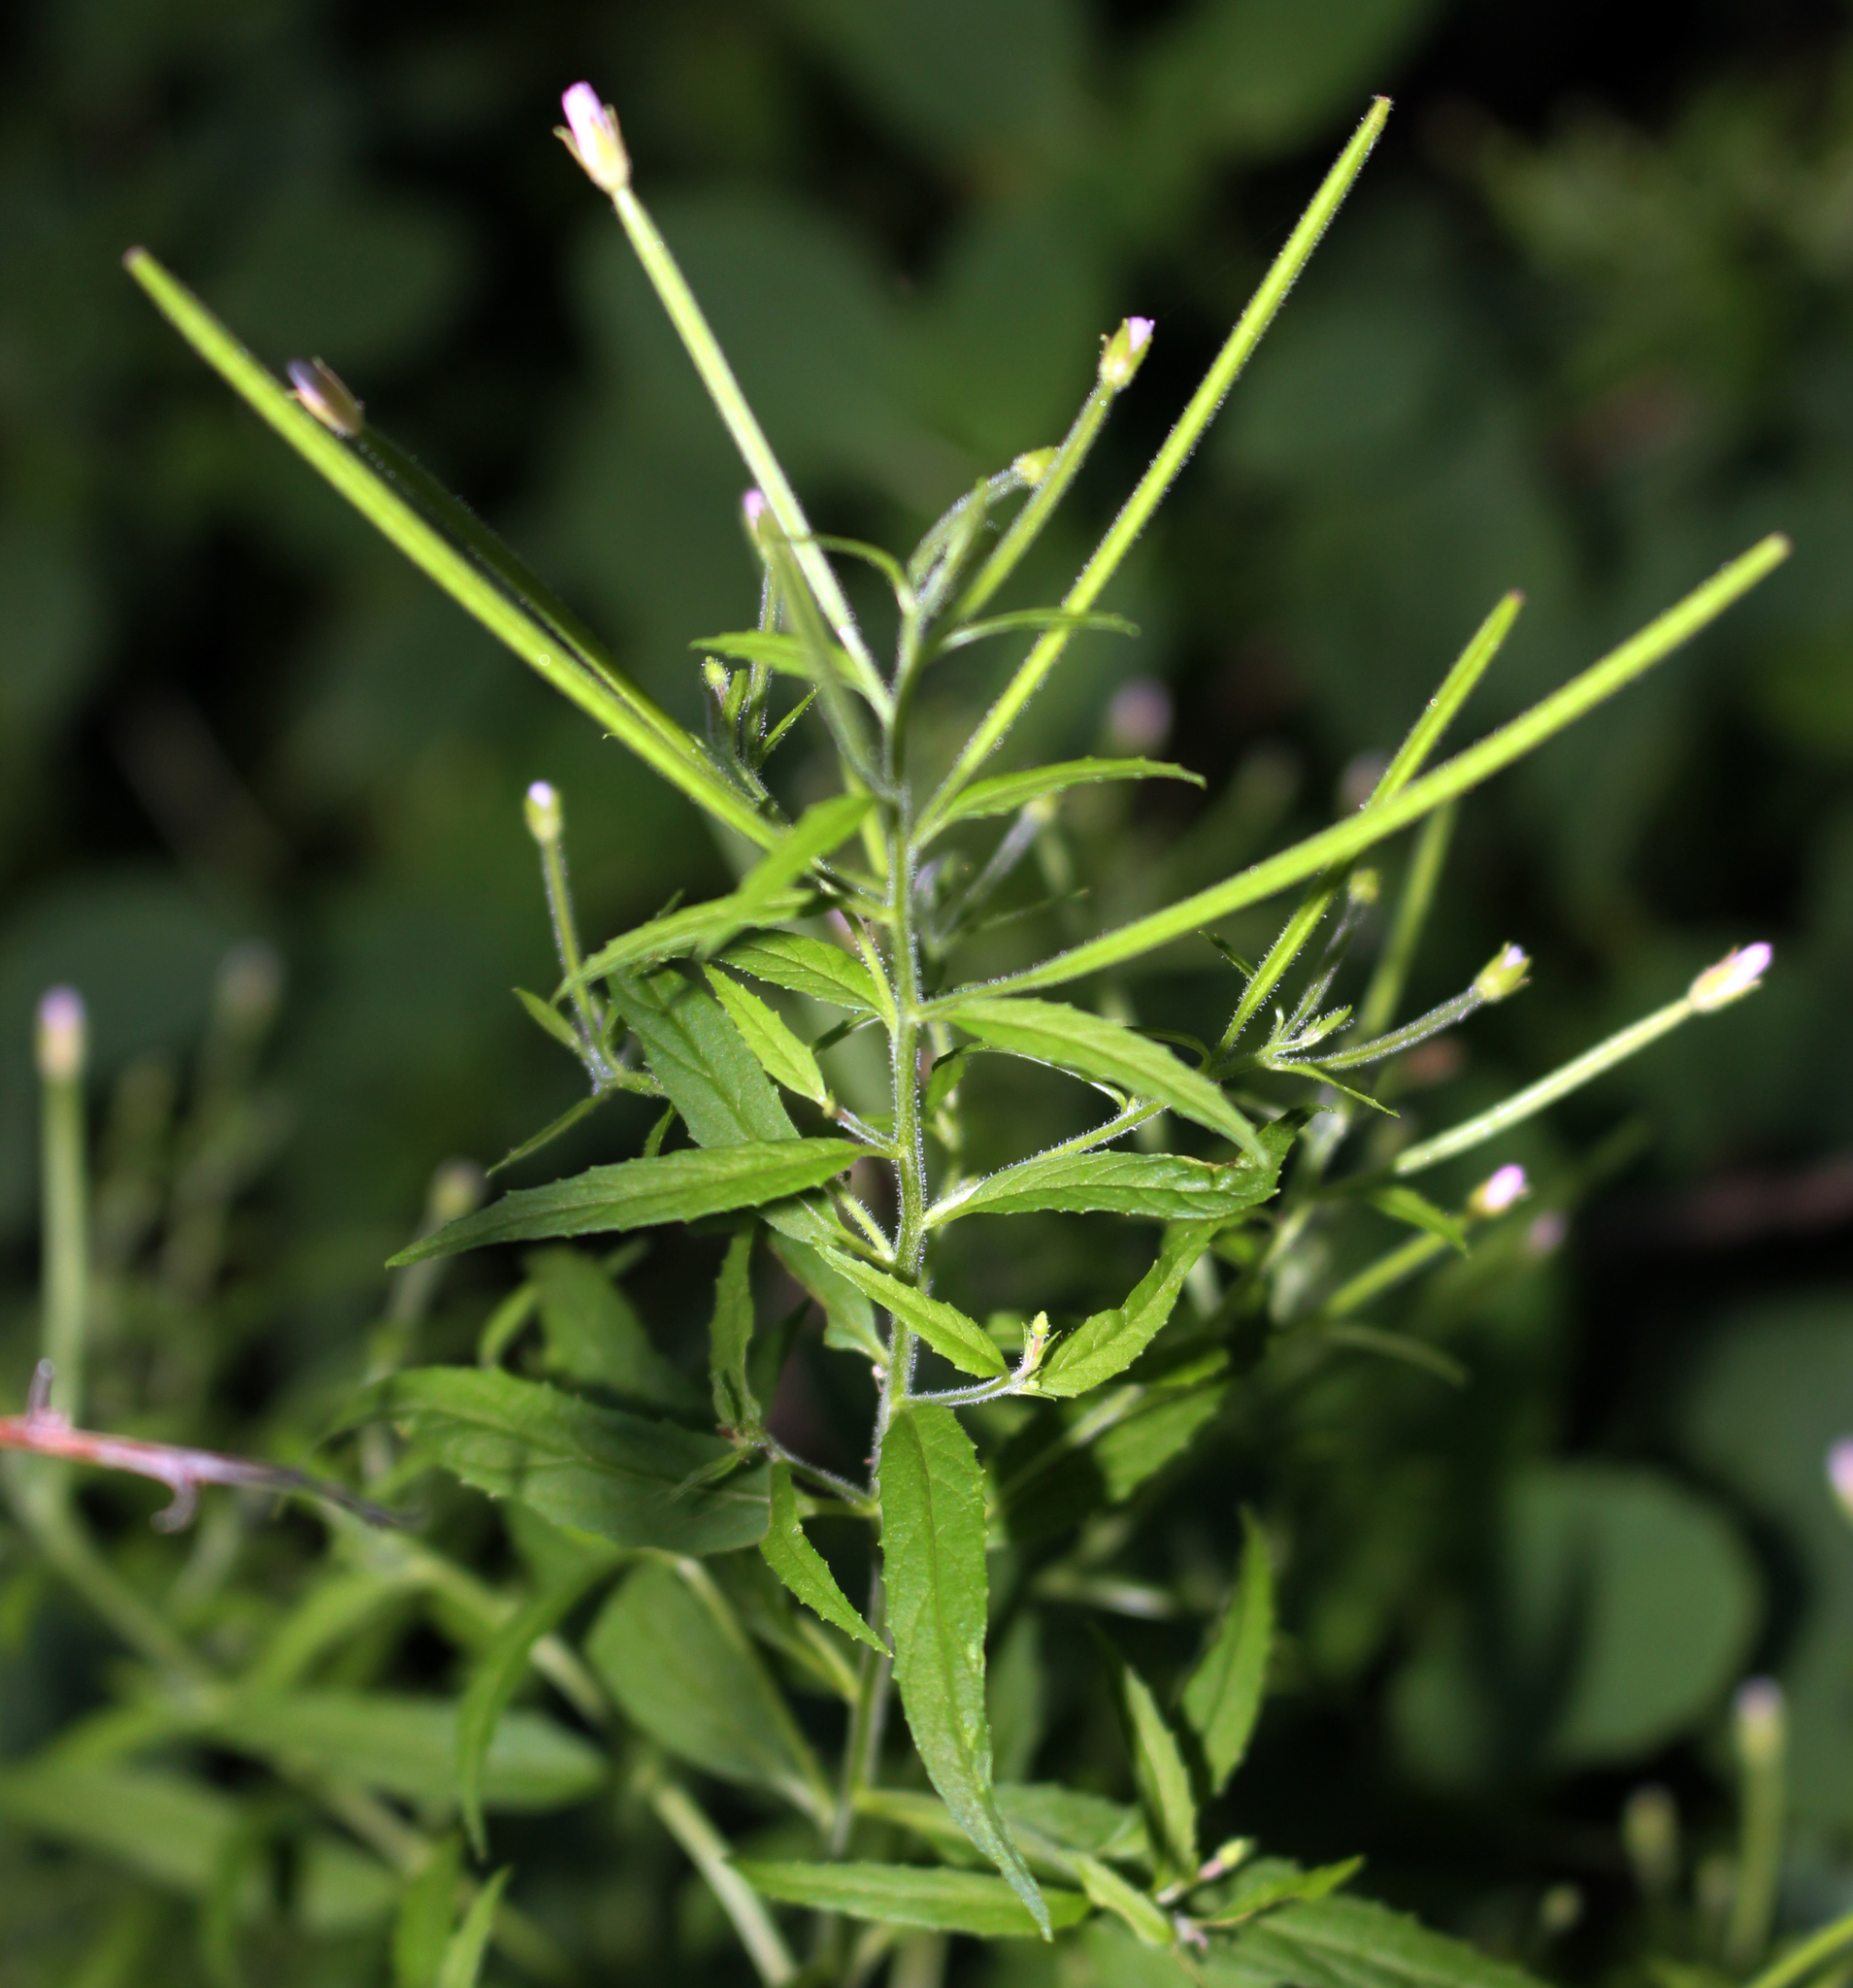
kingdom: Plantae
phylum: Tracheophyta
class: Magnoliopsida
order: Myrtales
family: Onagraceae
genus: Epilobium
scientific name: Epilobium coloratum
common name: Bronze willowherb
